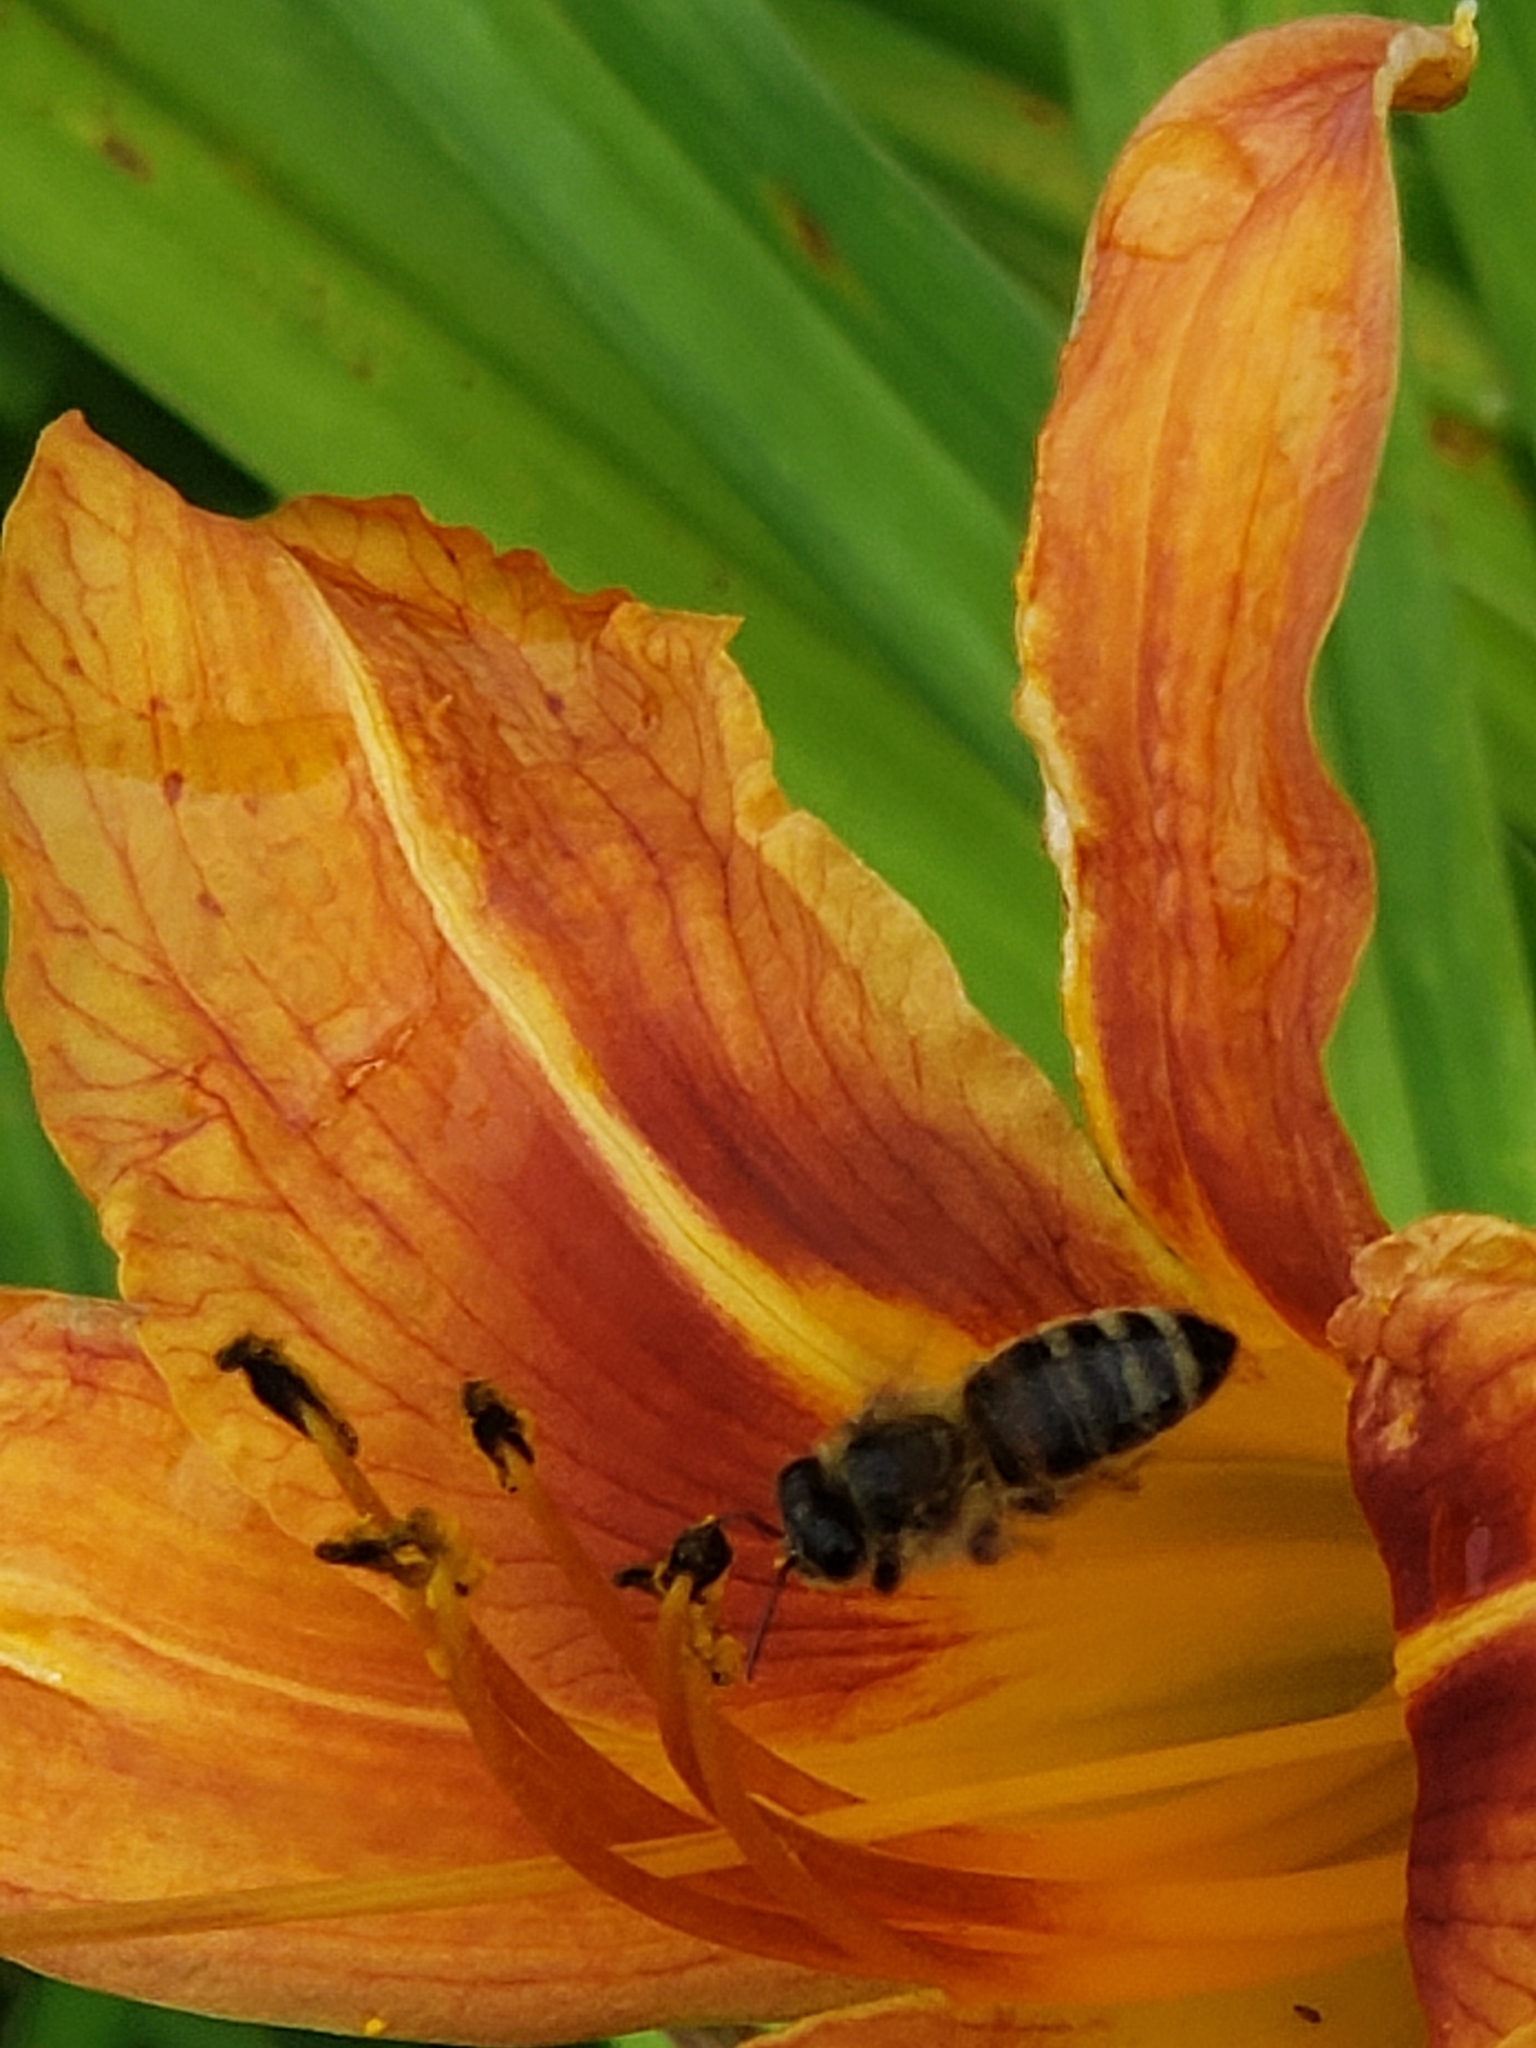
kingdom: Animalia
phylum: Arthropoda
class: Insecta
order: Hymenoptera
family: Apidae
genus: Apis
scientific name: Apis mellifera
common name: Honey bee
